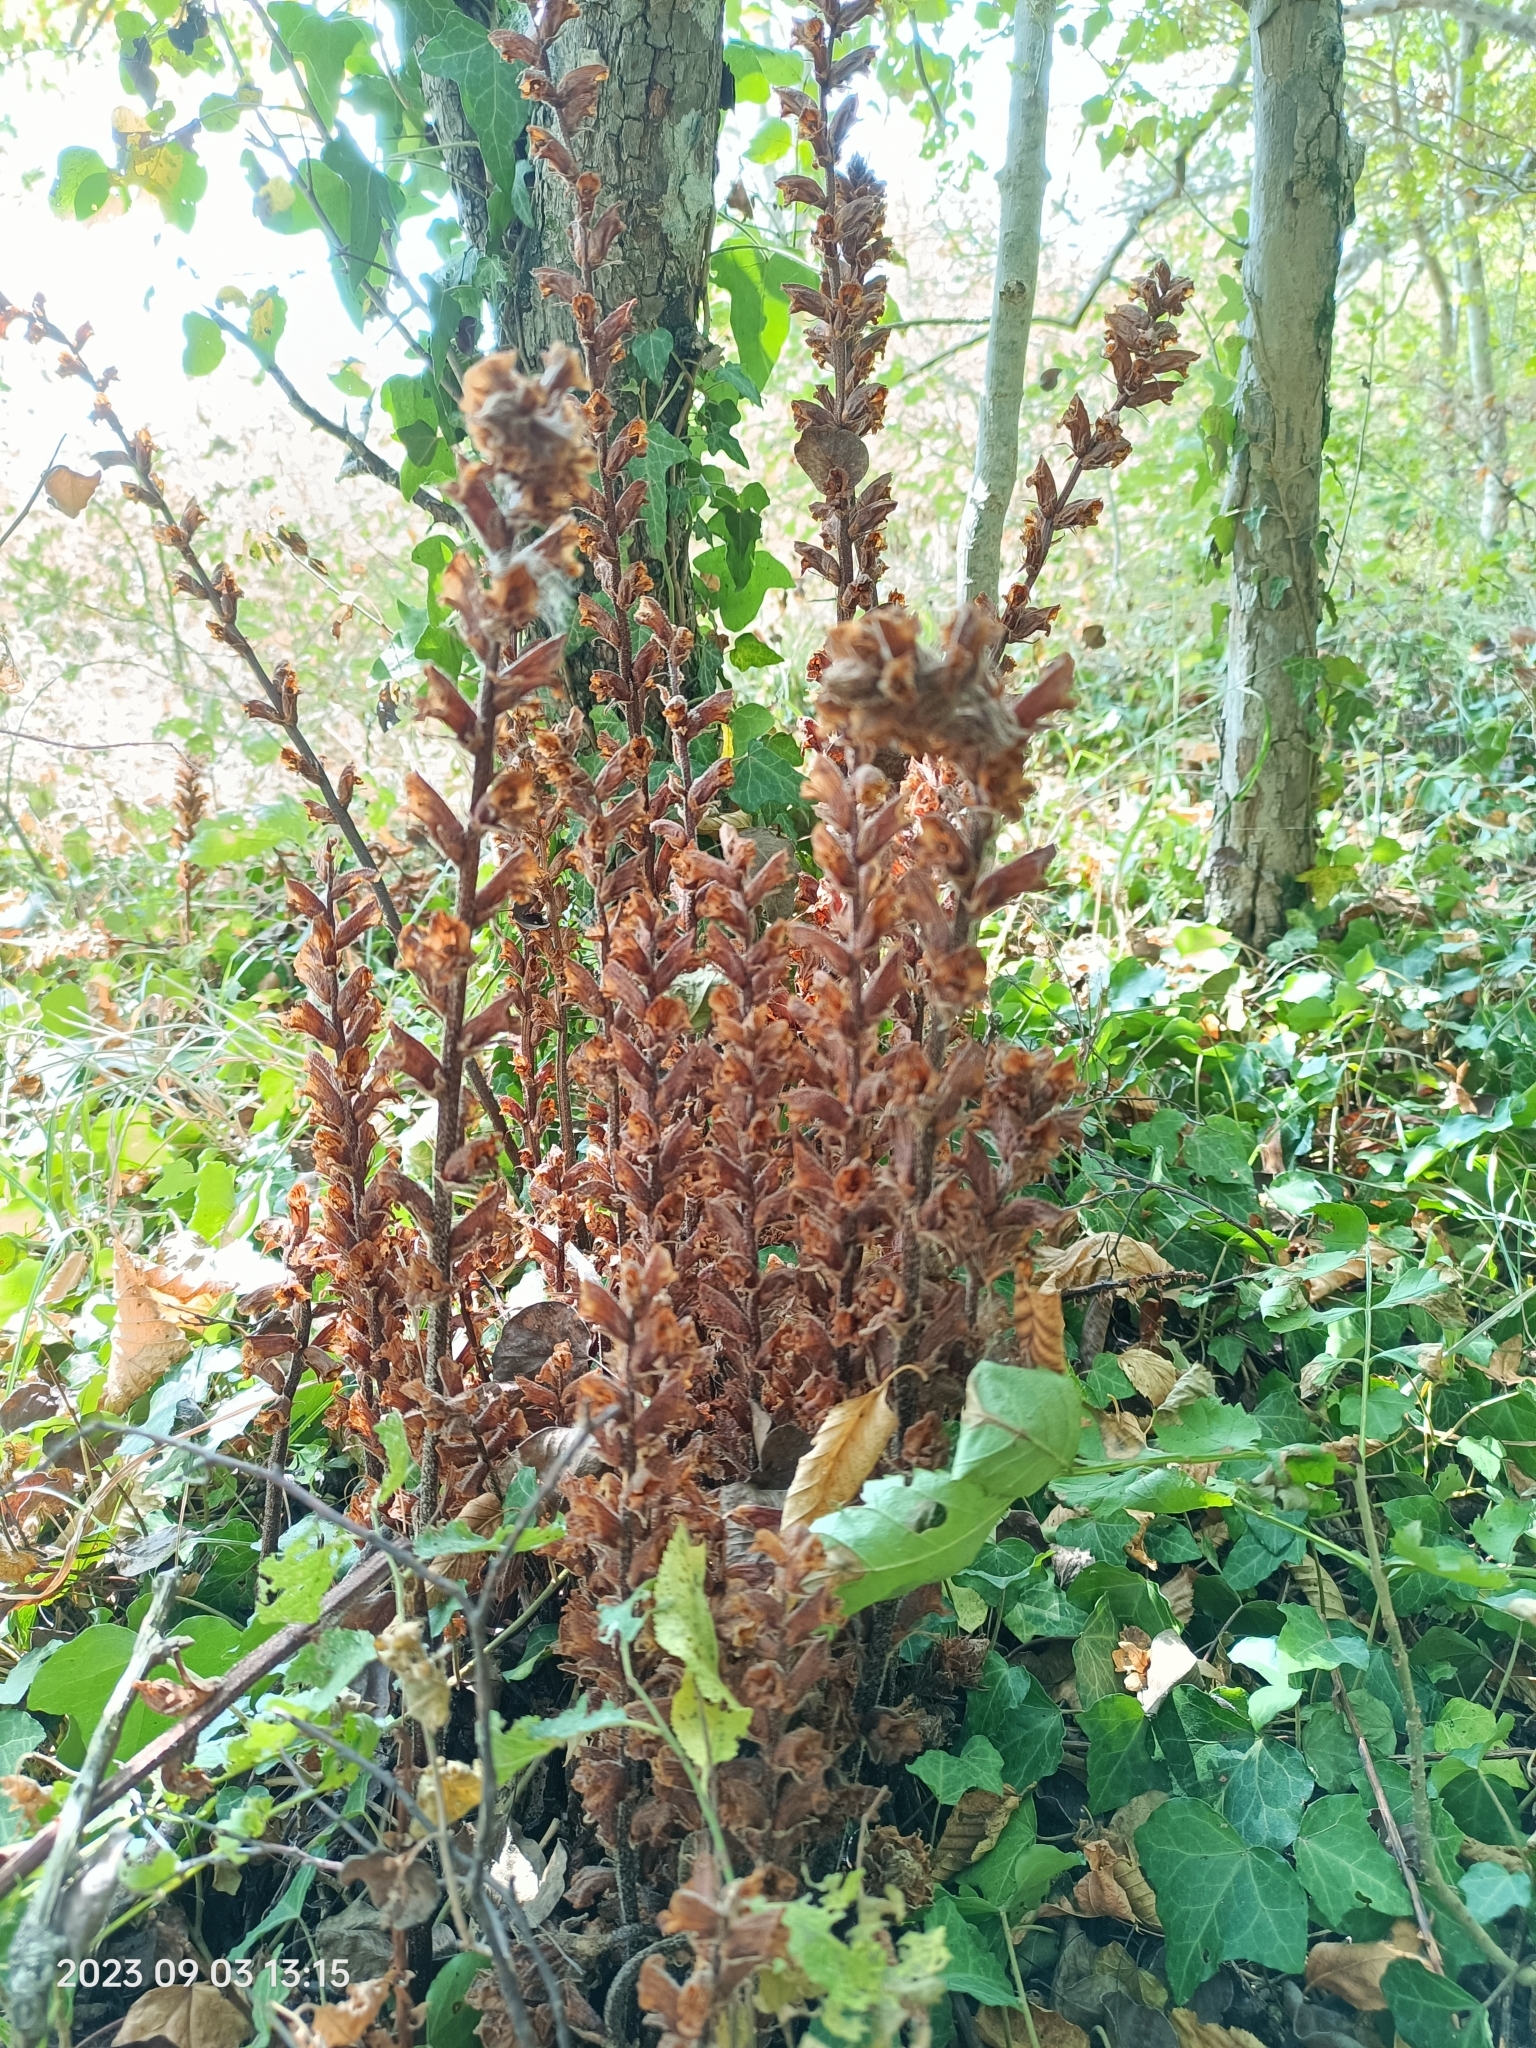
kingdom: Plantae
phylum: Tracheophyta
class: Magnoliopsida
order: Lamiales
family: Orobanchaceae
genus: Orobanche
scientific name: Orobanche laxissima
